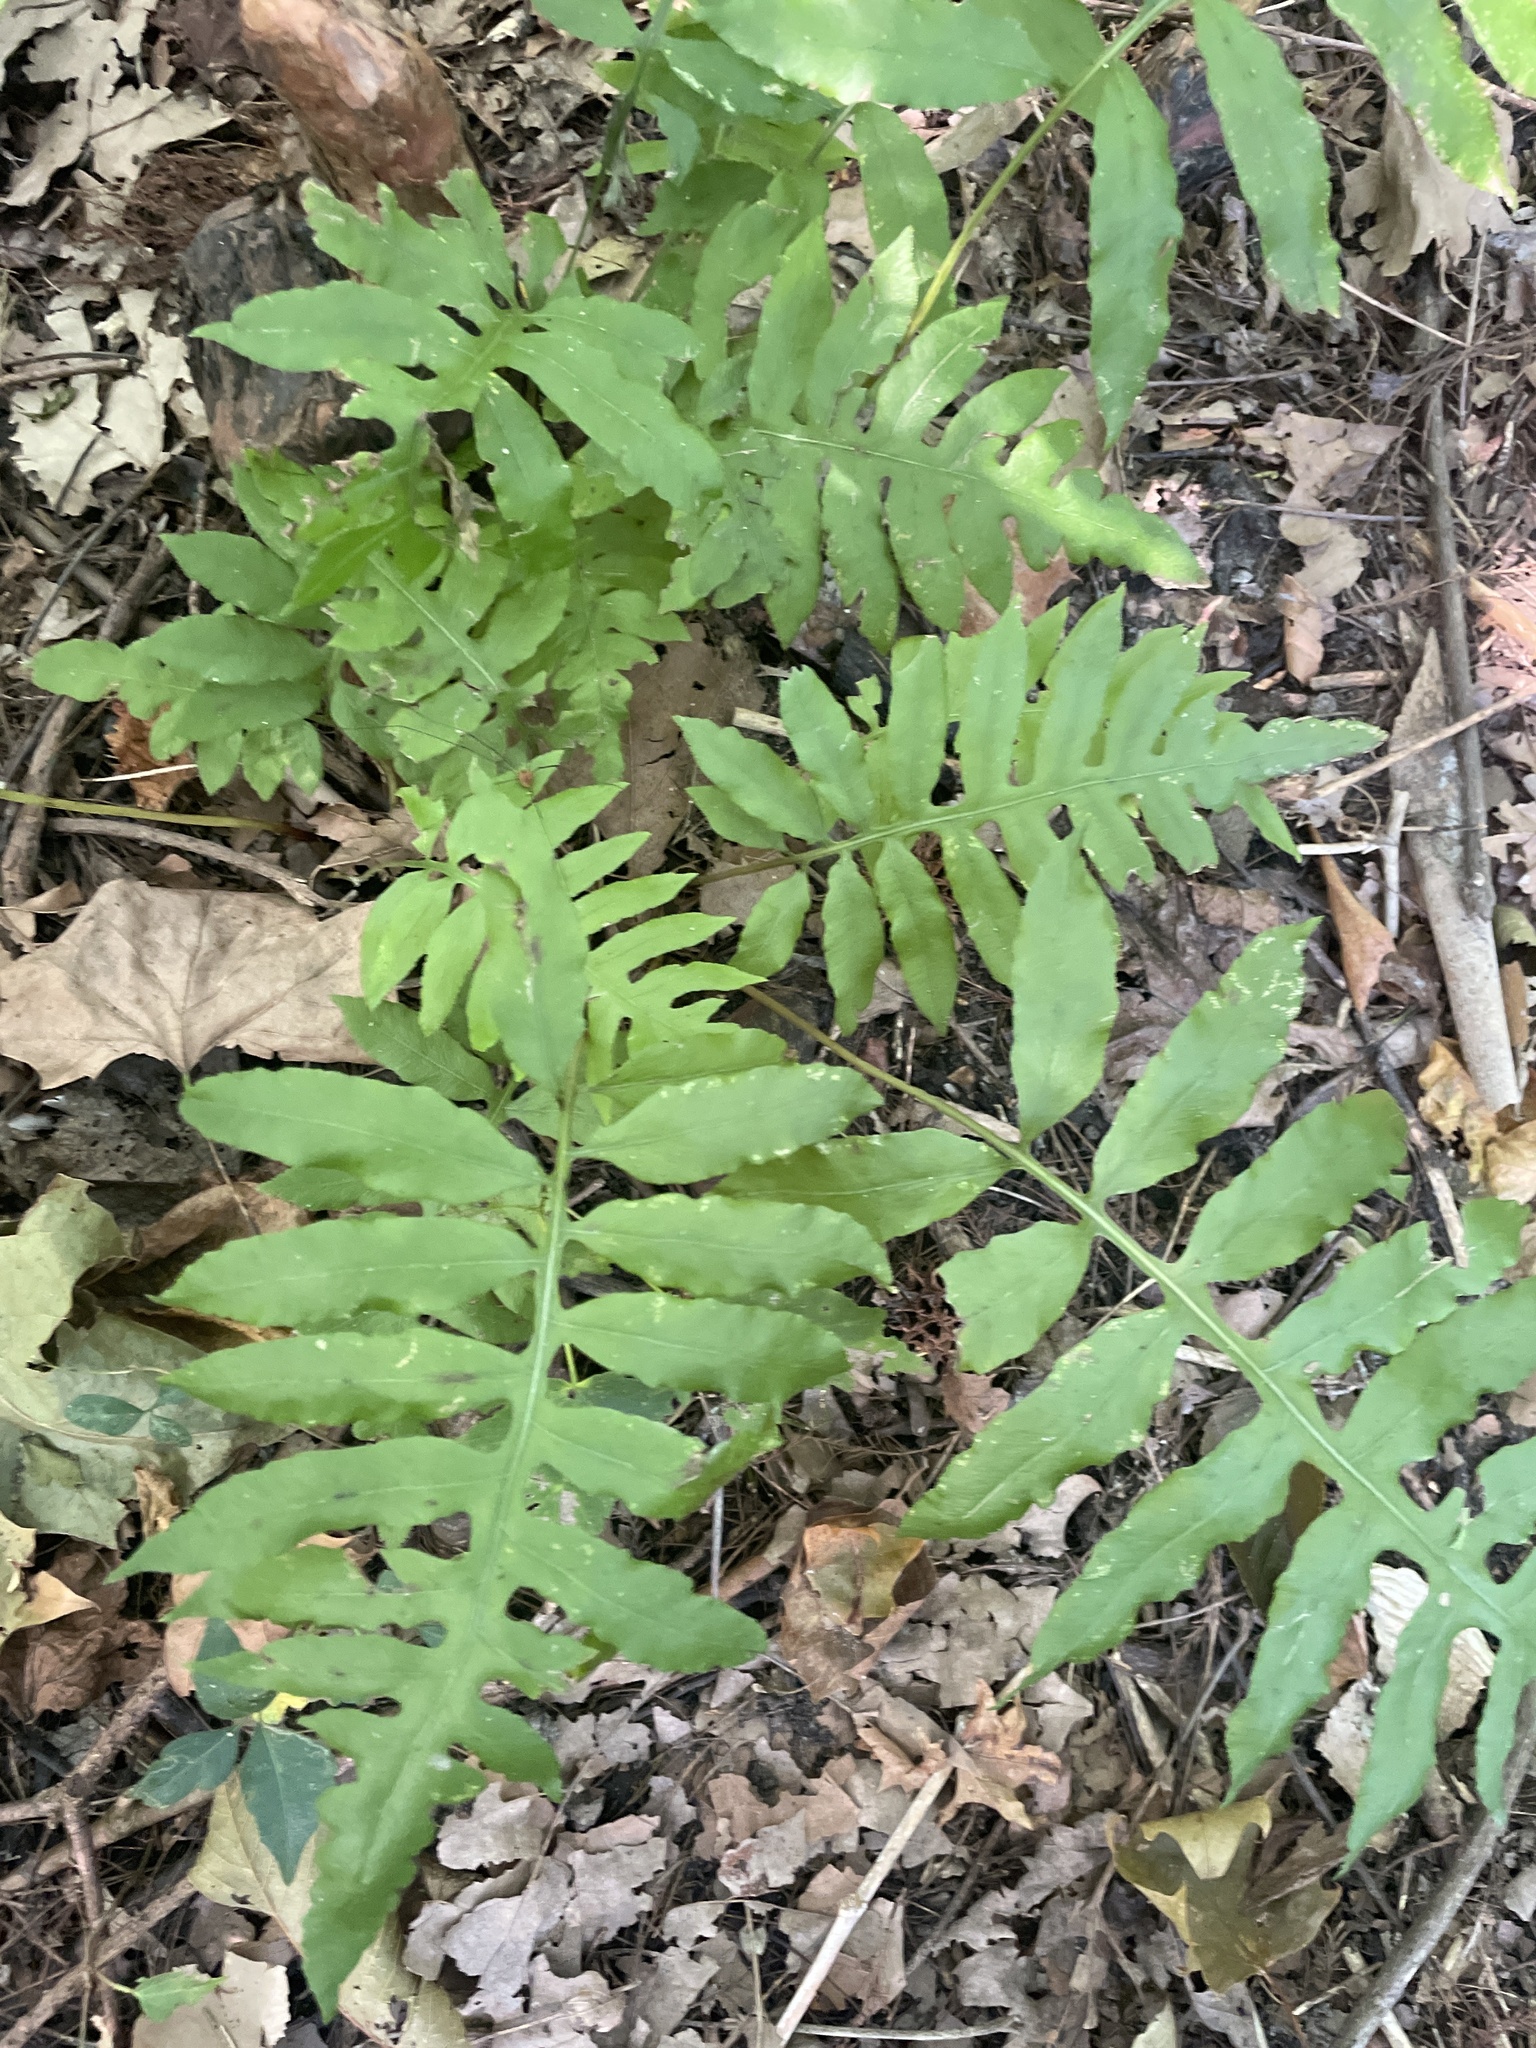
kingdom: Plantae
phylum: Tracheophyta
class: Polypodiopsida
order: Polypodiales
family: Blechnaceae
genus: Lorinseria
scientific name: Lorinseria areolata
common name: Dwarf chain fern
